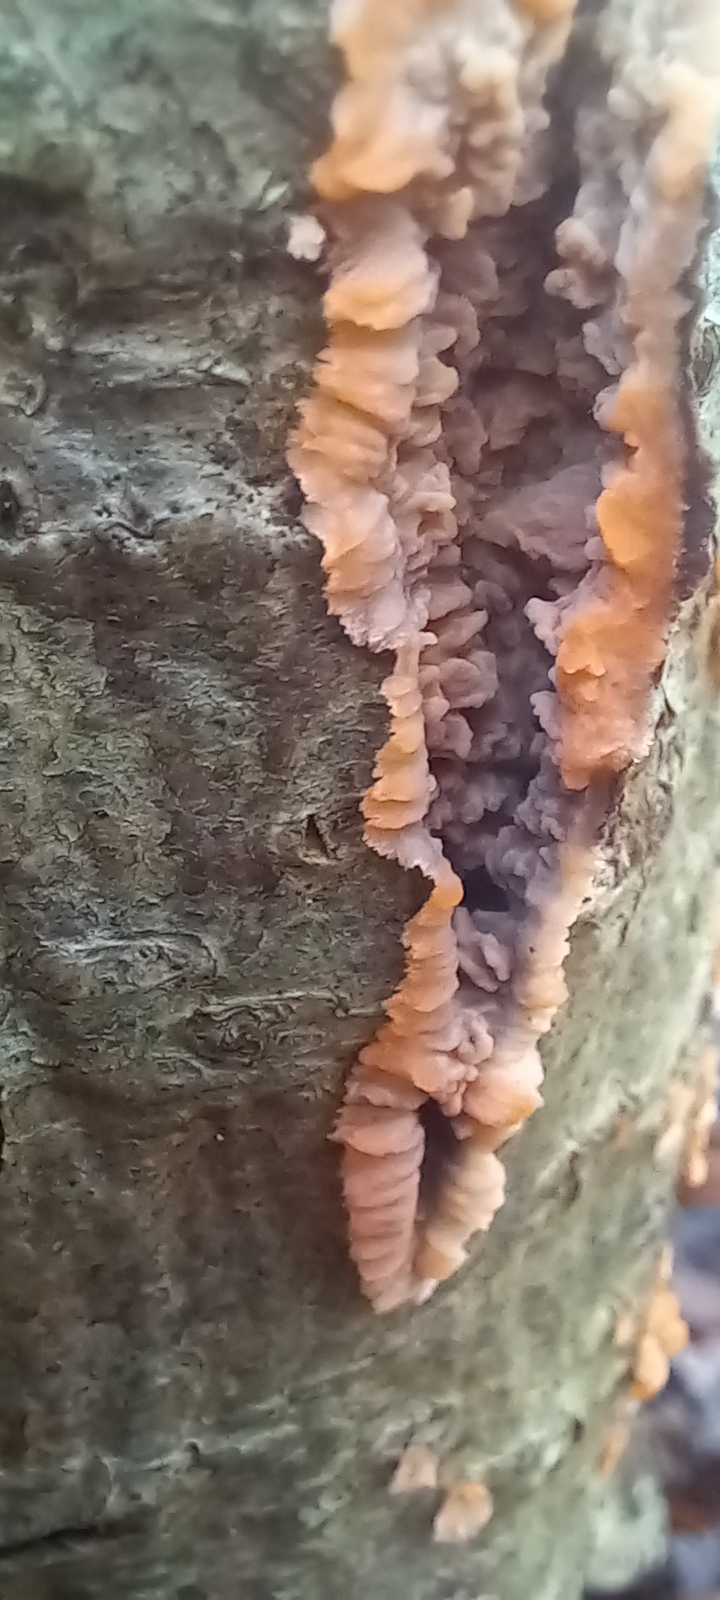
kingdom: Fungi
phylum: Basidiomycota
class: Agaricomycetes
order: Polyporales
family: Meruliaceae
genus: Phlebia
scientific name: Phlebia radiata
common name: Wrinkled crust
